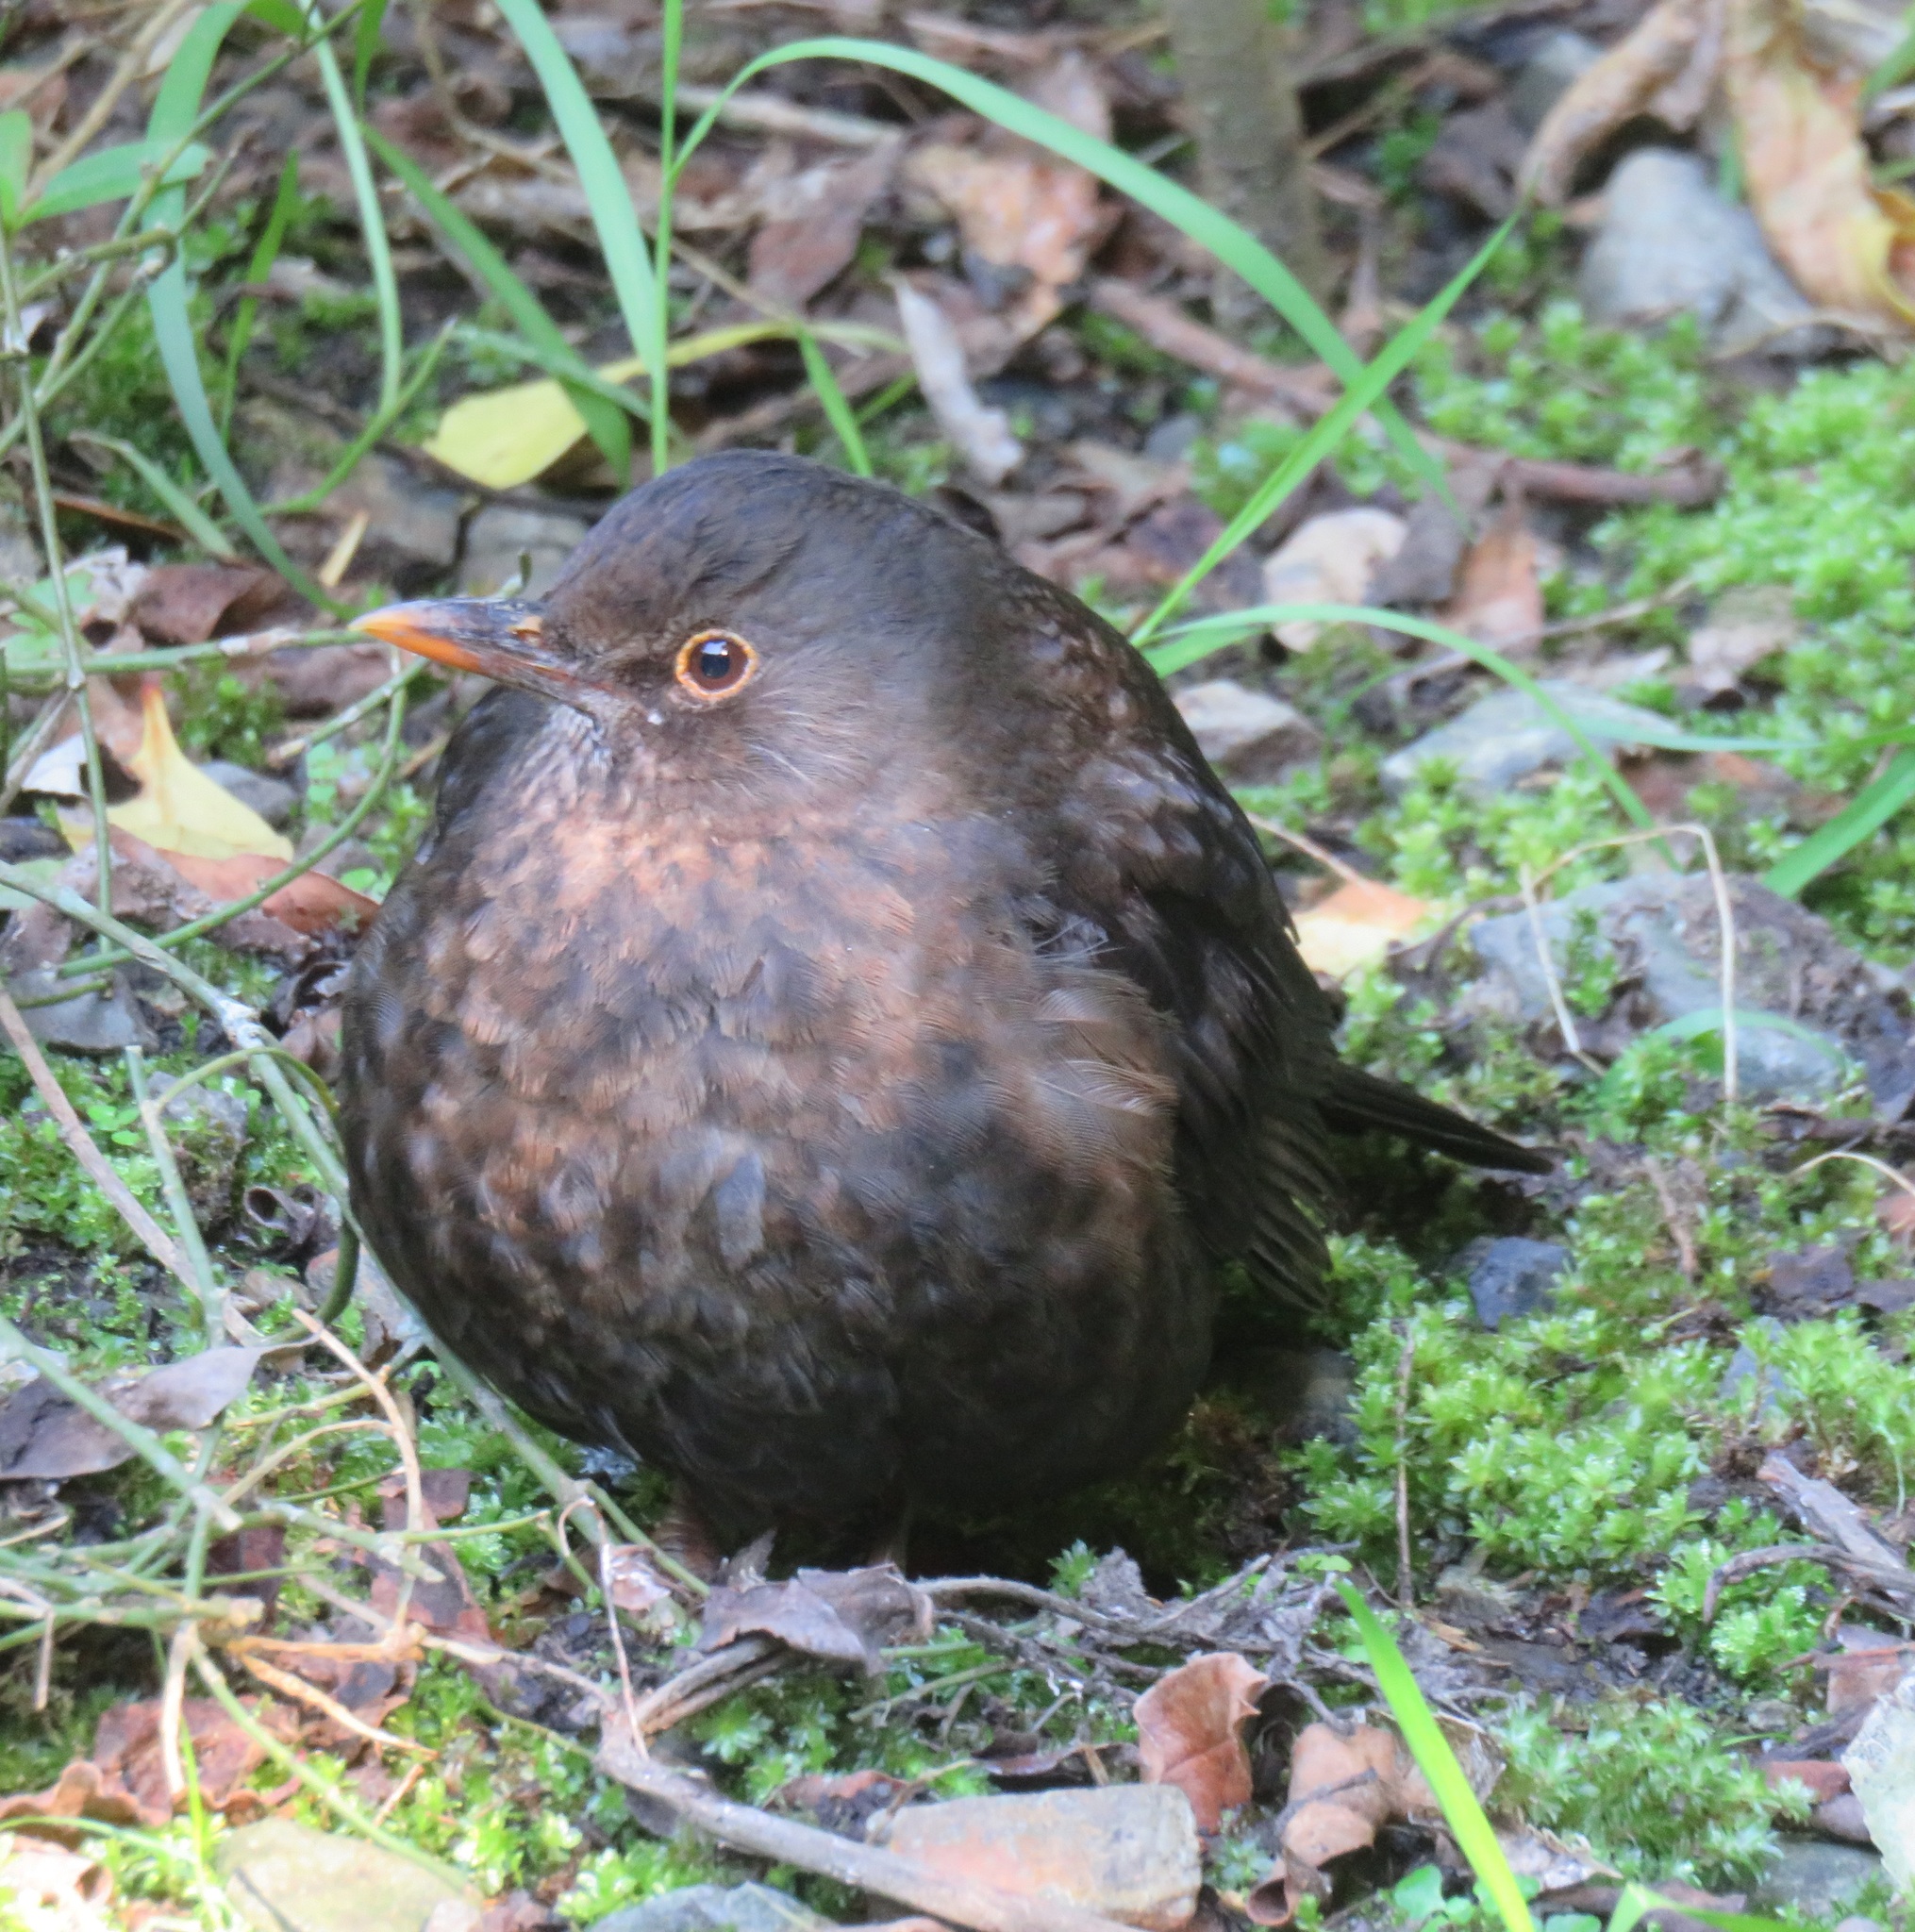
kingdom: Animalia
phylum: Chordata
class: Aves
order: Passeriformes
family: Turdidae
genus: Turdus
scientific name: Turdus merula
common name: Common blackbird
